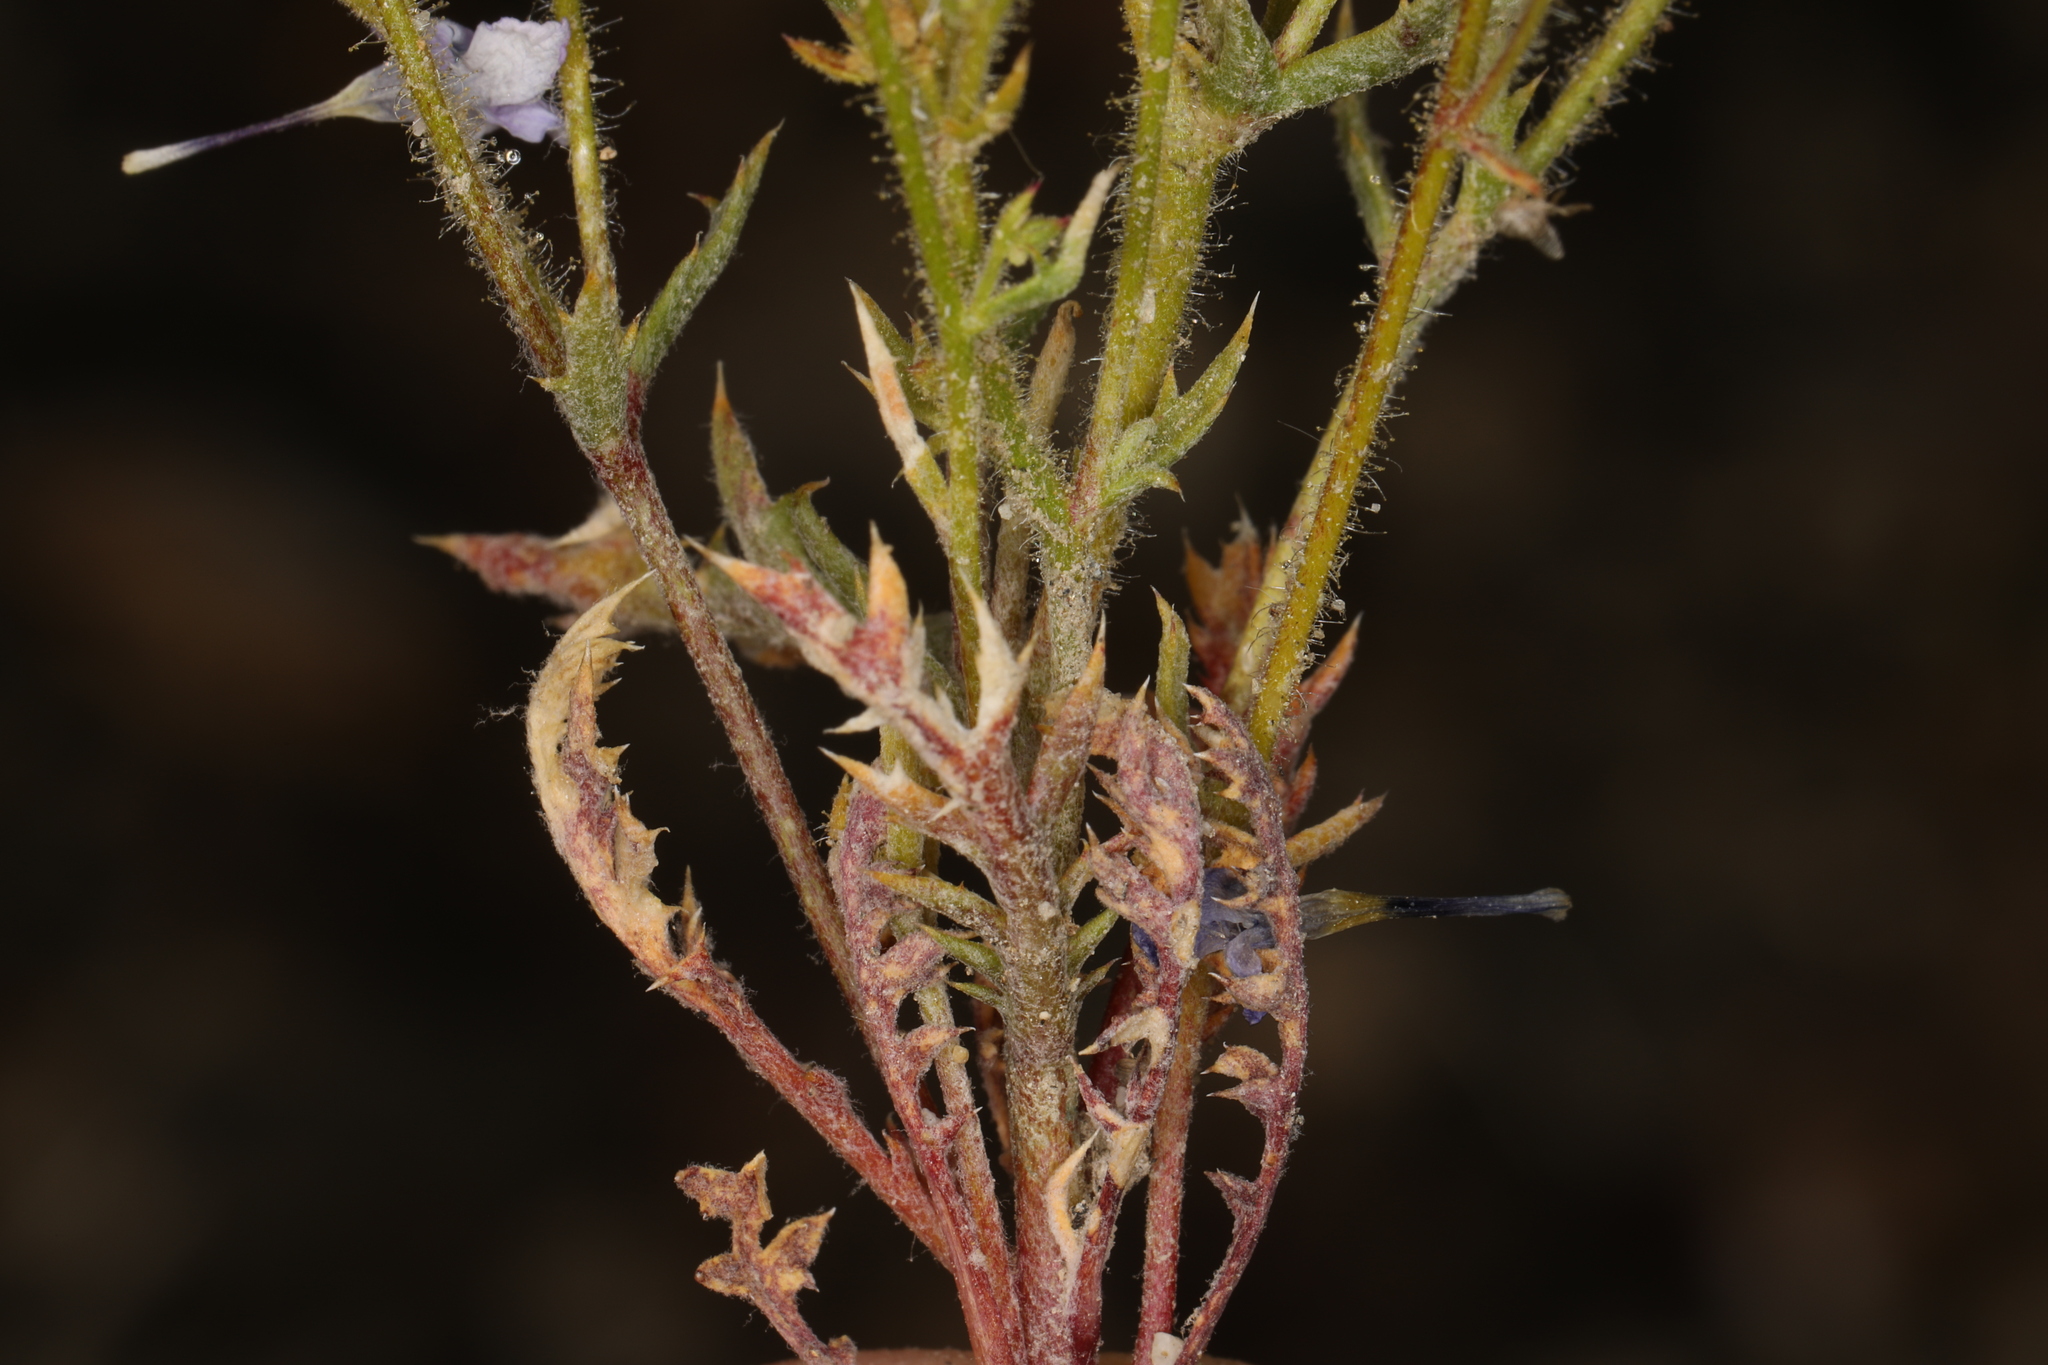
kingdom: Plantae
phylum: Tracheophyta
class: Magnoliopsida
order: Ericales
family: Polemoniaceae
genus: Gilia
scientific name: Gilia cana
